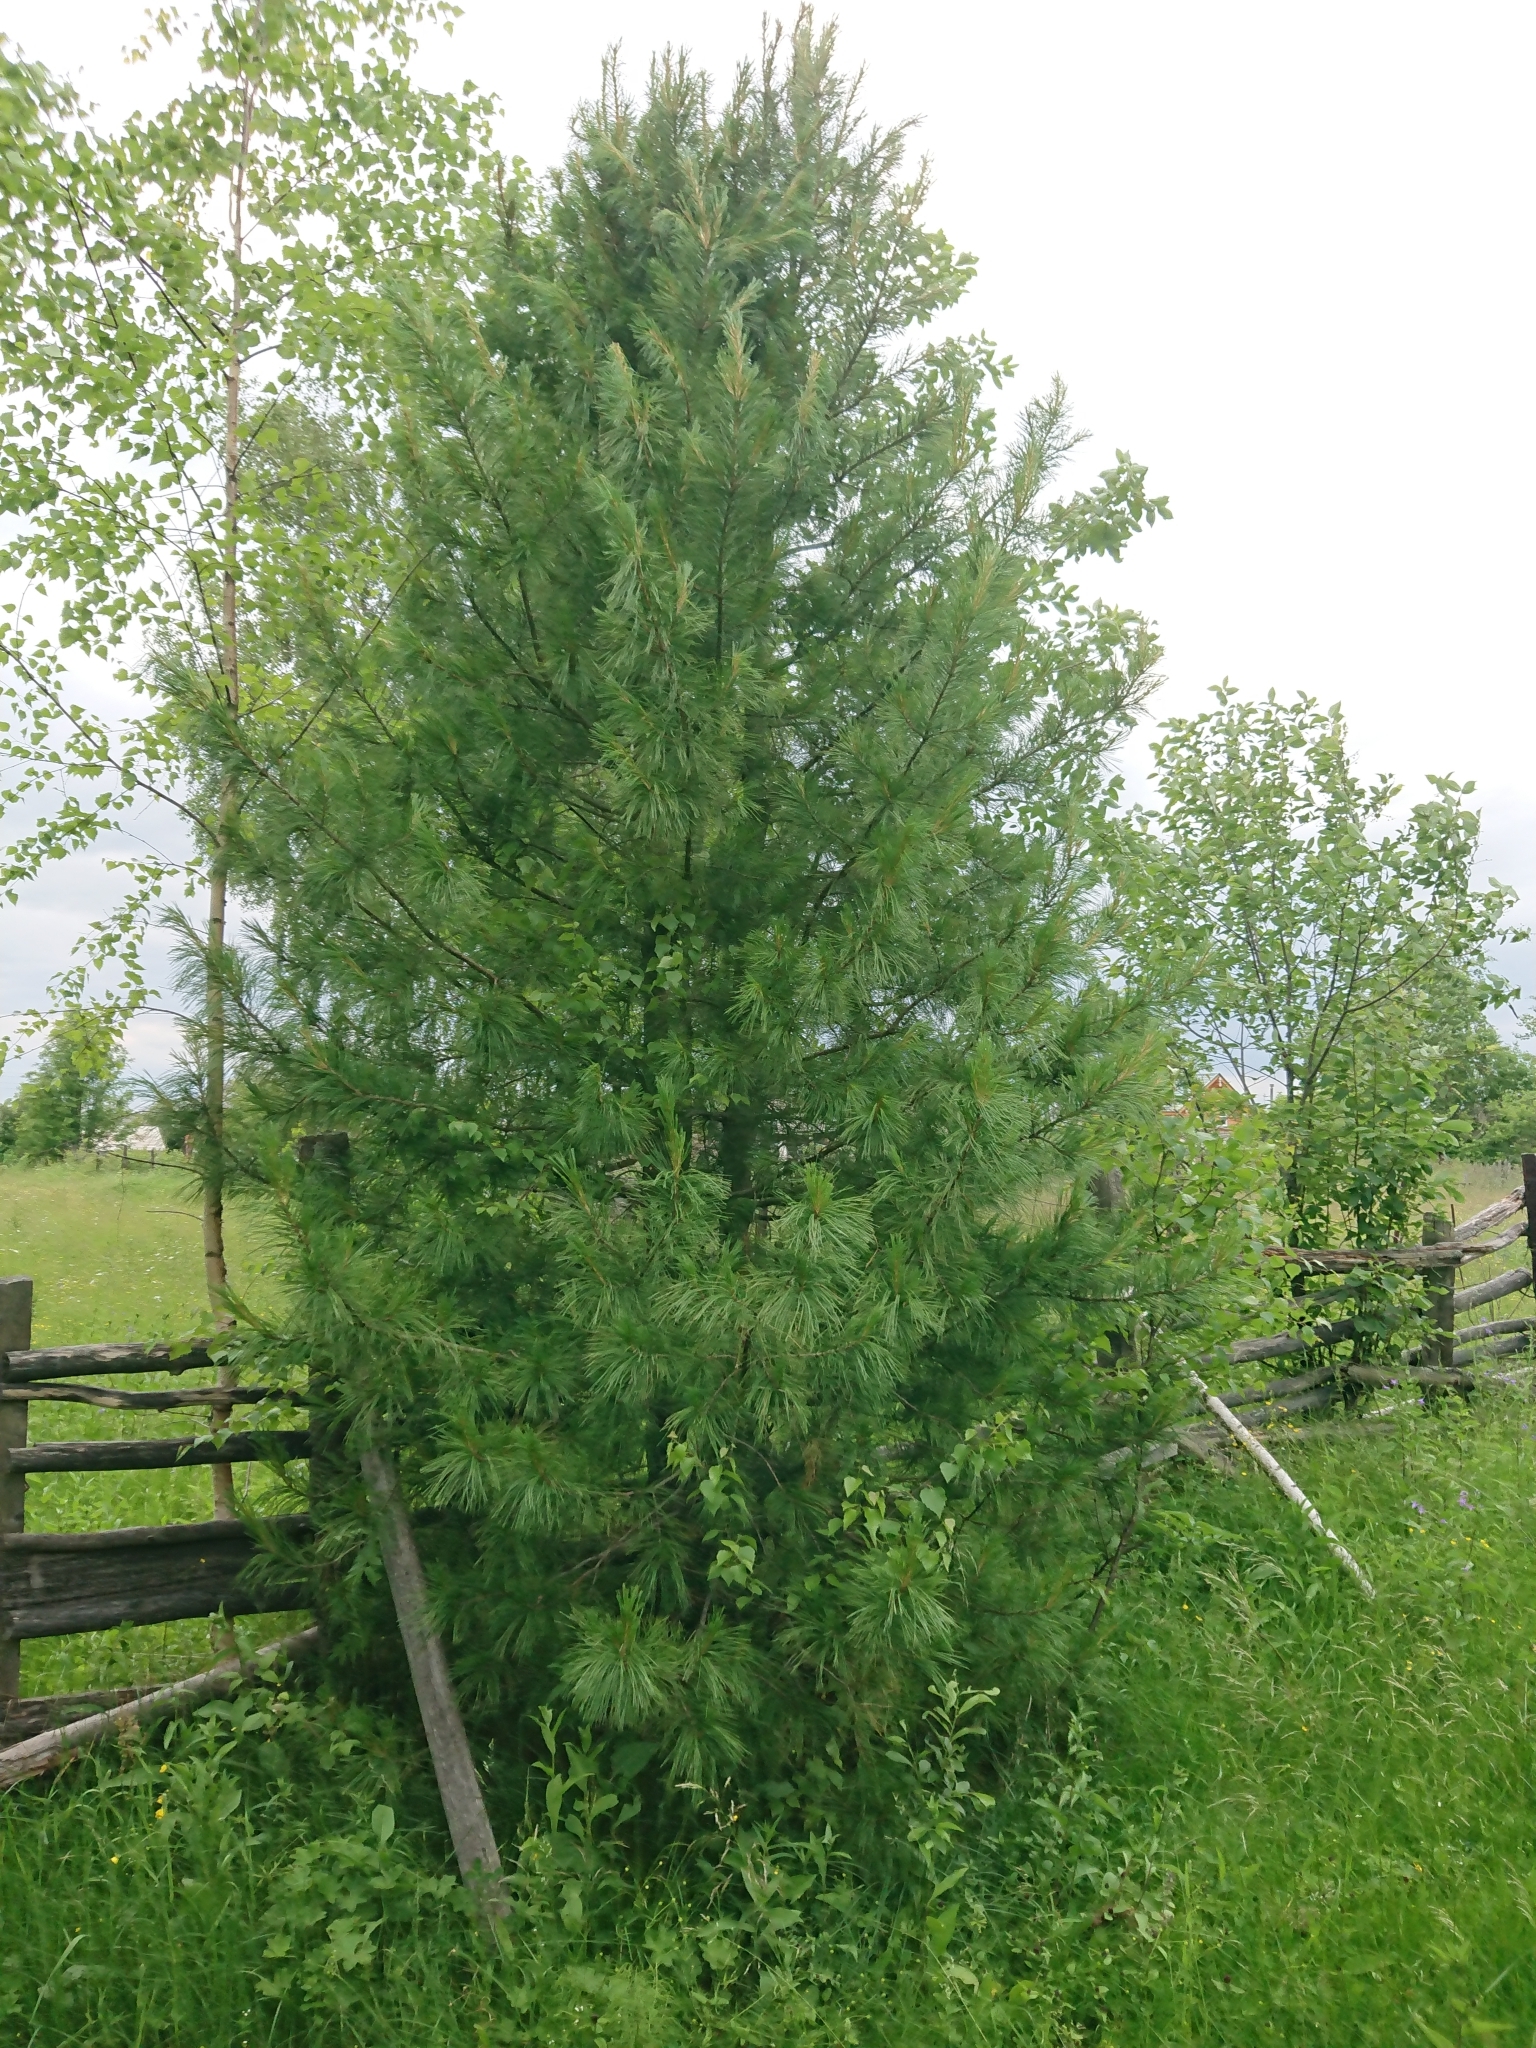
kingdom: Plantae
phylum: Tracheophyta
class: Pinopsida
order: Pinales
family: Pinaceae
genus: Pinus
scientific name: Pinus sibirica
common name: Siberian pine
